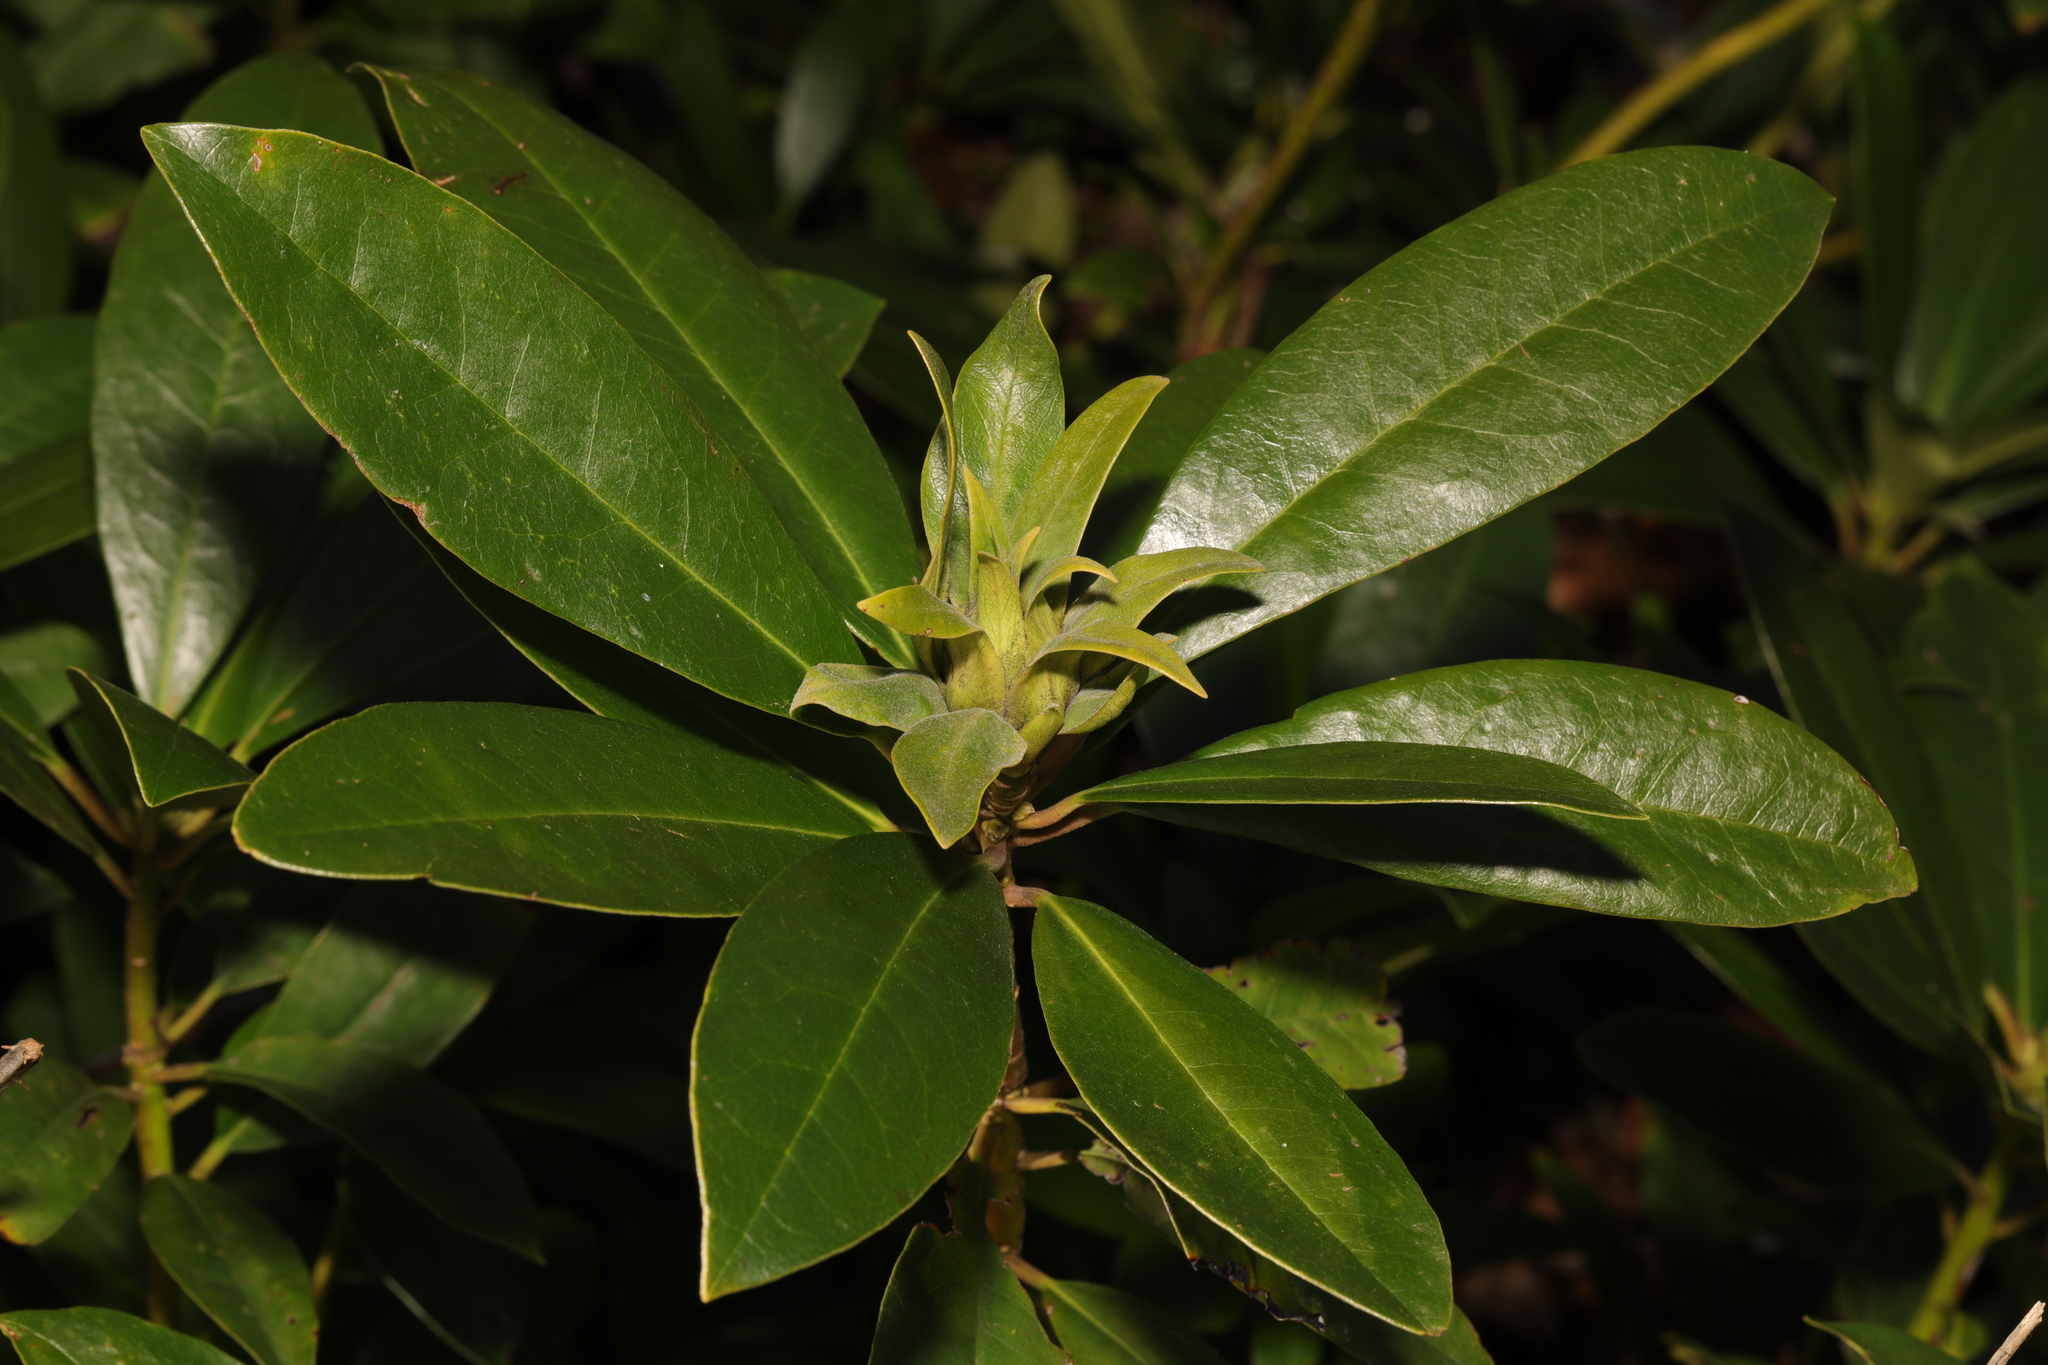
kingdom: Plantae
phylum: Tracheophyta
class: Magnoliopsida
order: Ericales
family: Ericaceae
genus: Rhododendron
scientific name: Rhododendron ponticum
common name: Rhododendron
